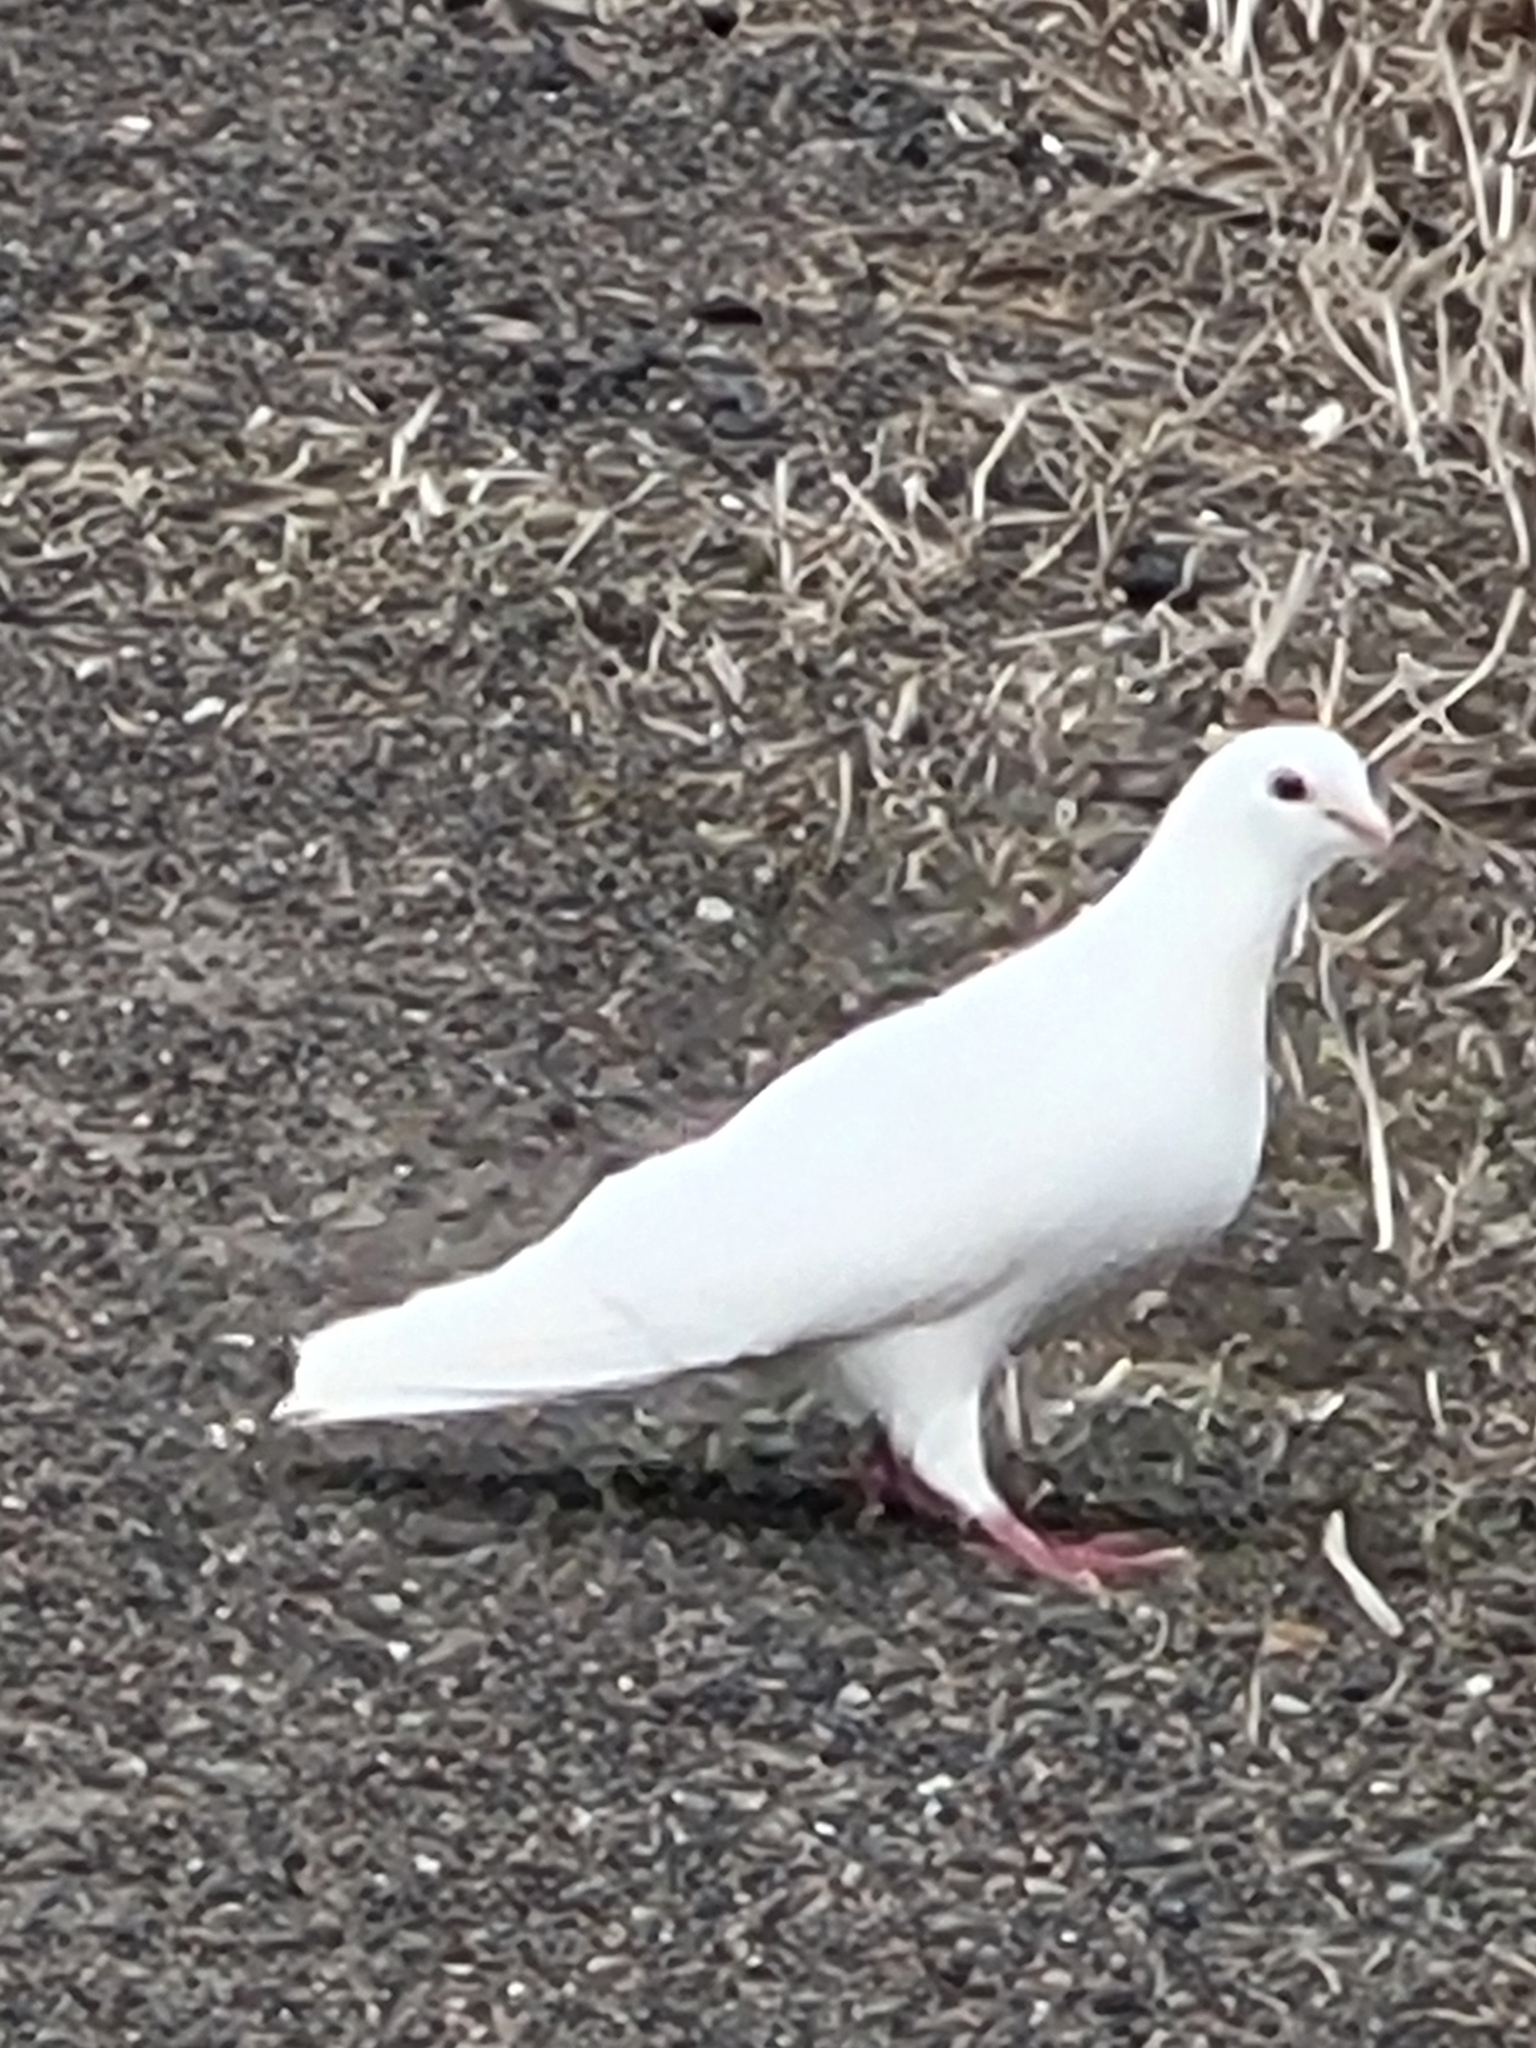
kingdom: Animalia
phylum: Chordata
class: Aves
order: Columbiformes
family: Columbidae
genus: Columba
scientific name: Columba livia
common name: Rock pigeon
